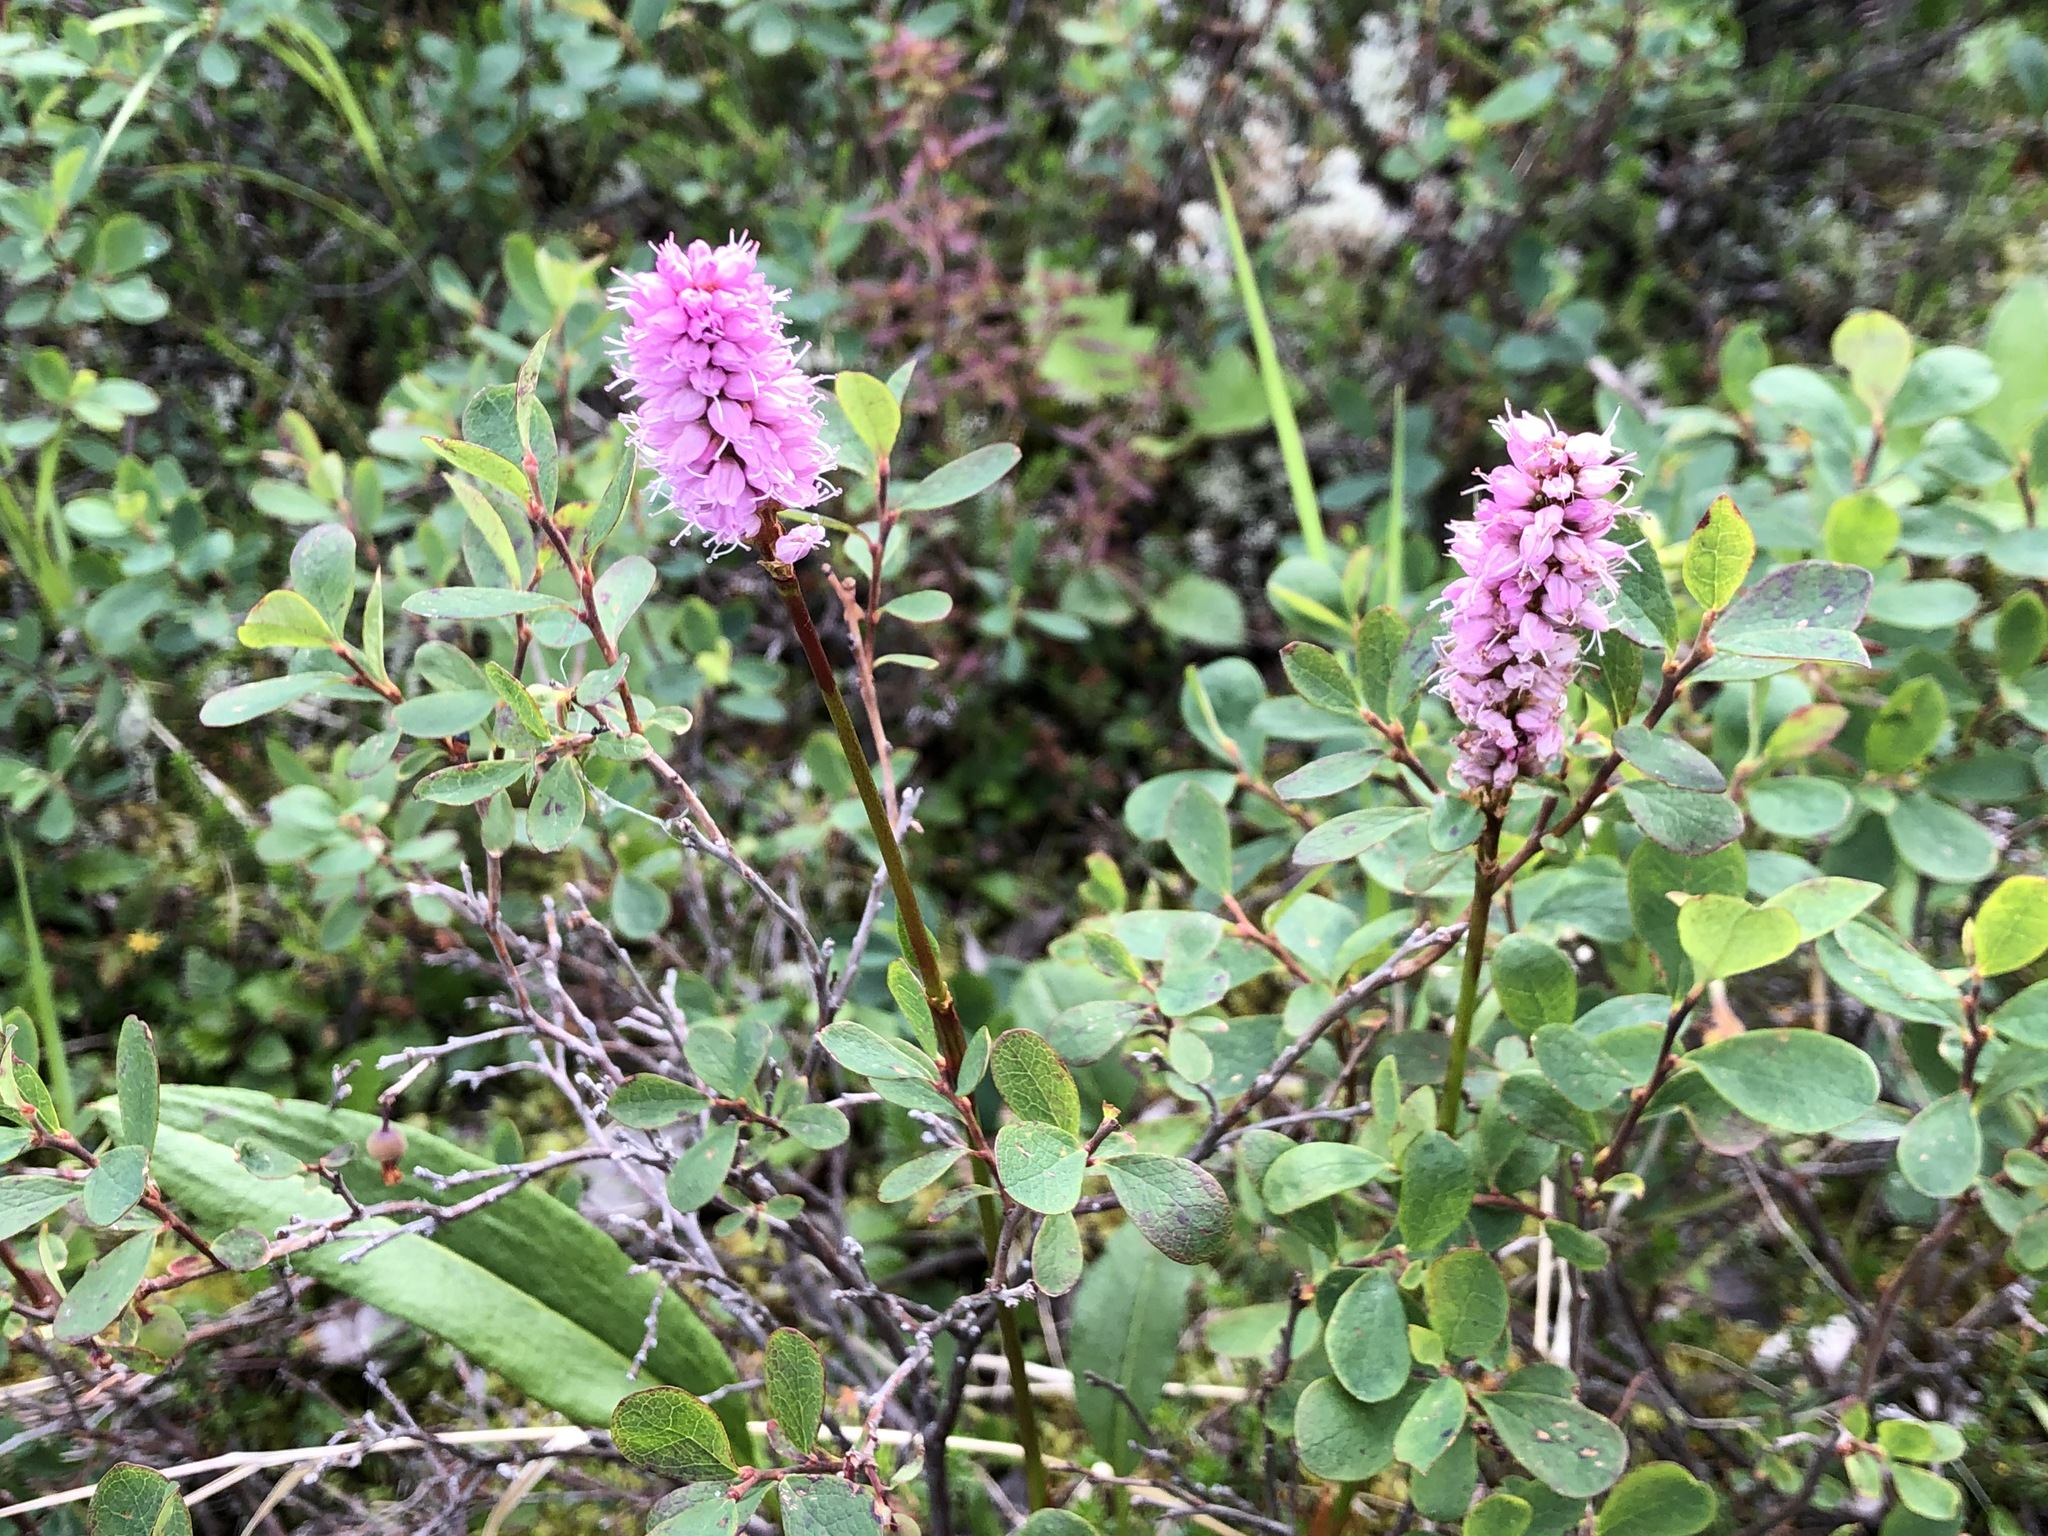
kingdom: Plantae
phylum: Tracheophyta
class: Magnoliopsida
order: Caryophyllales
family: Polygonaceae
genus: Bistorta
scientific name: Bistorta plumosa
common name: Meadow bistort
